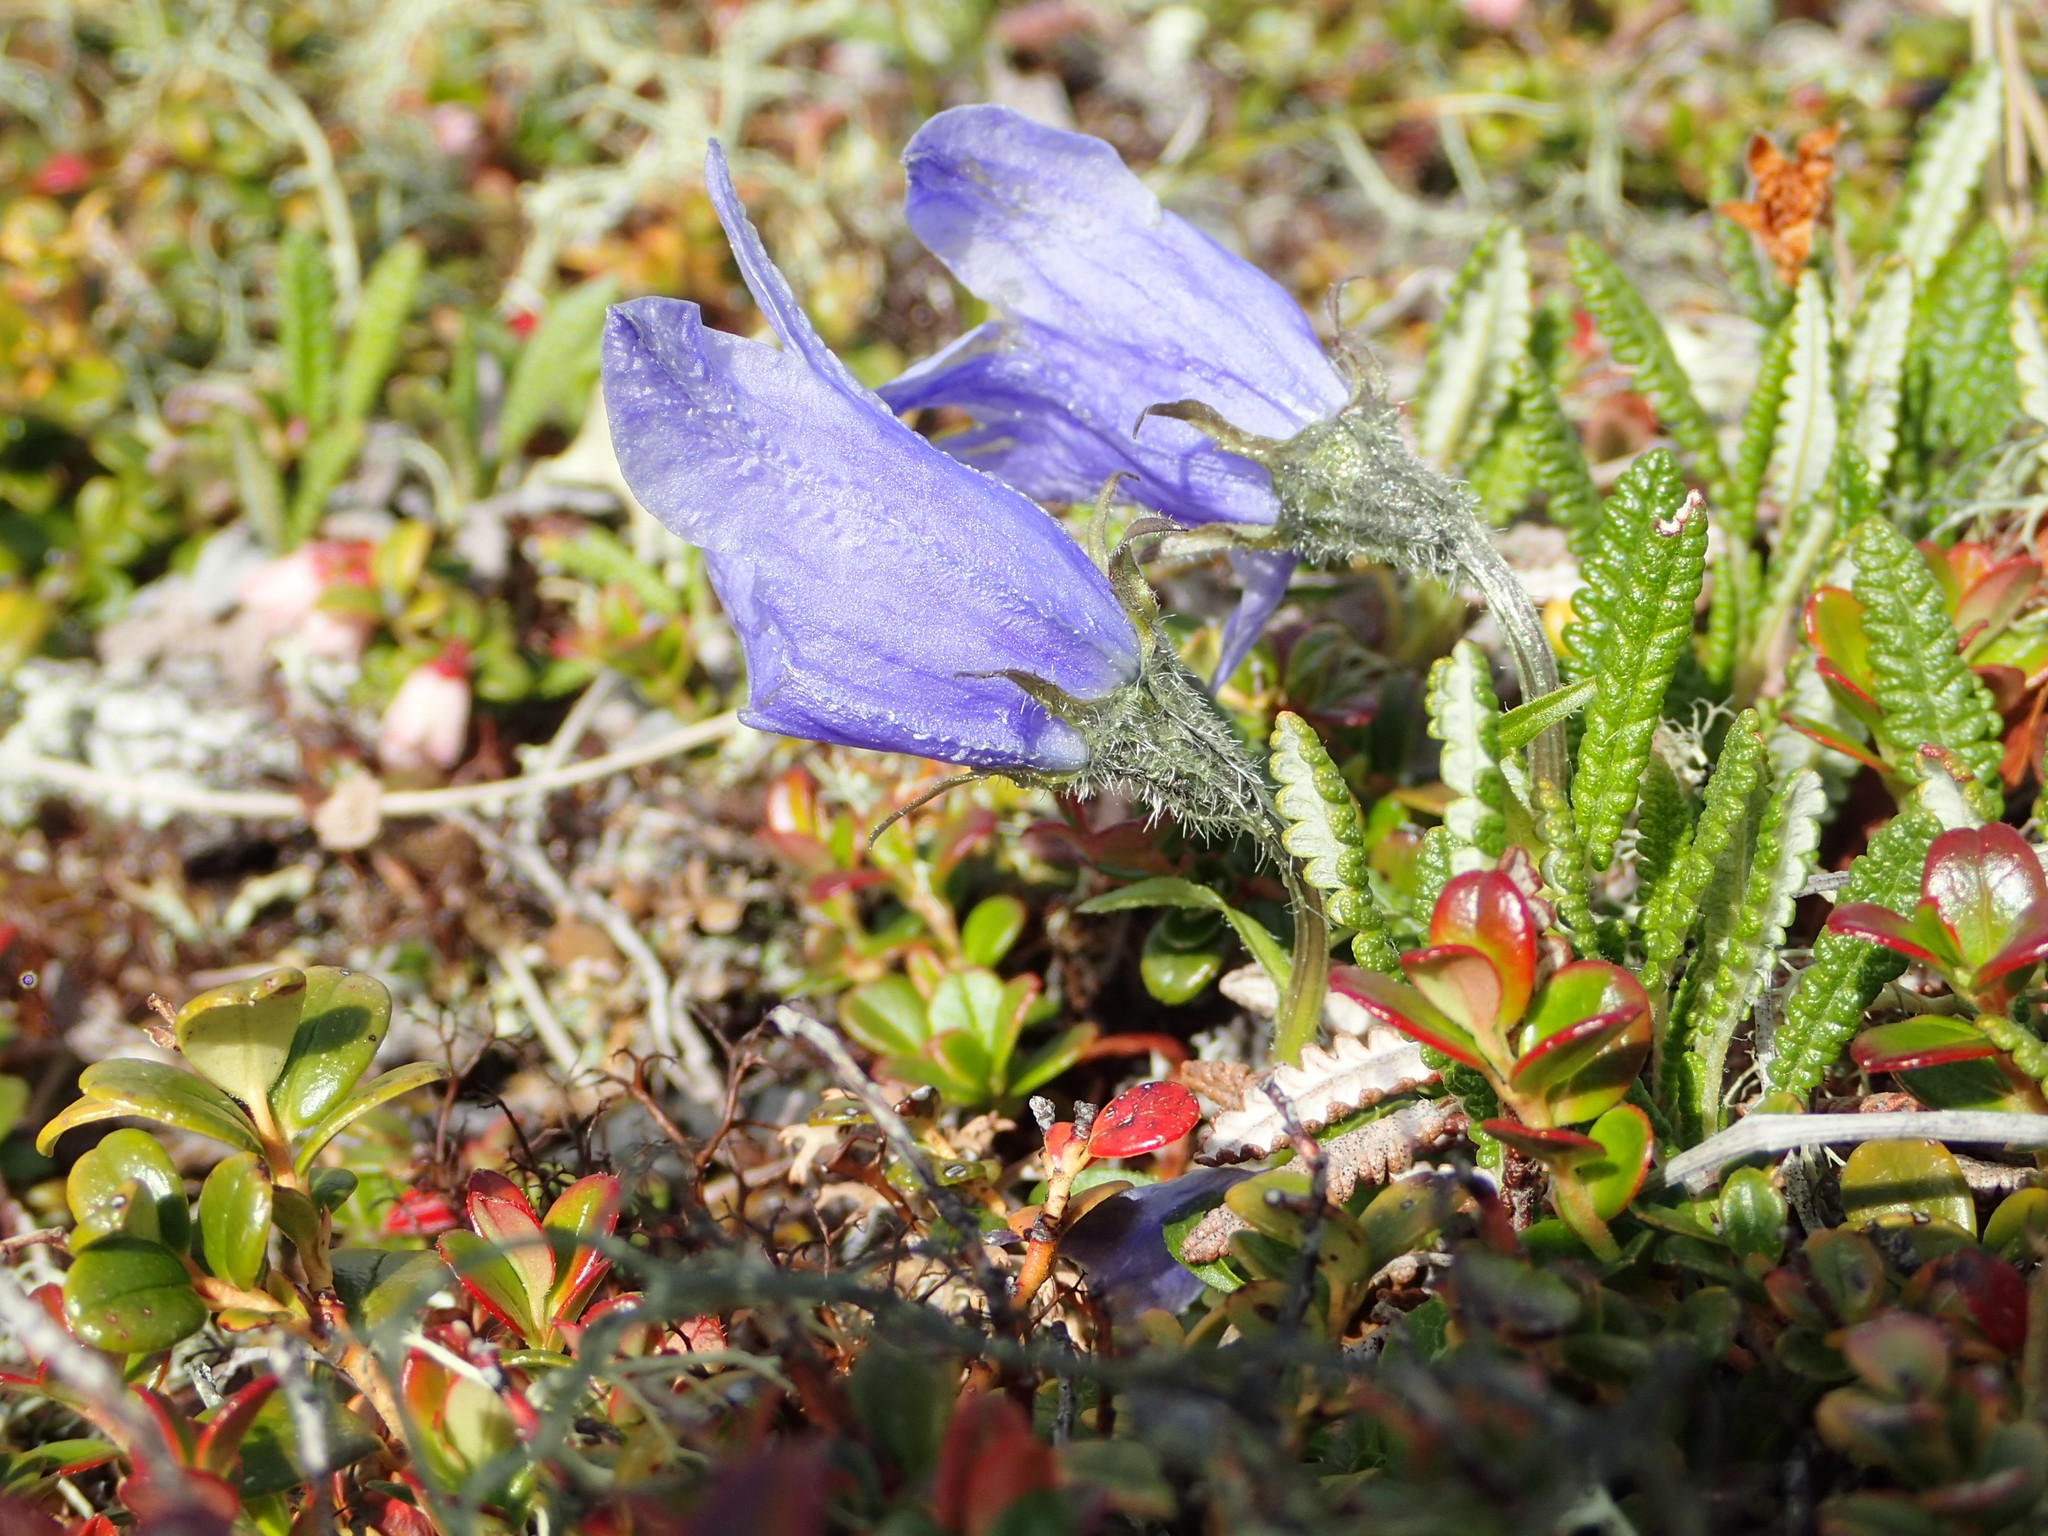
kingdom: Plantae
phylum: Tracheophyta
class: Magnoliopsida
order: Asterales
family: Campanulaceae
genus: Campanula
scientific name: Campanula lasiocarpa
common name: Mountain harebell
